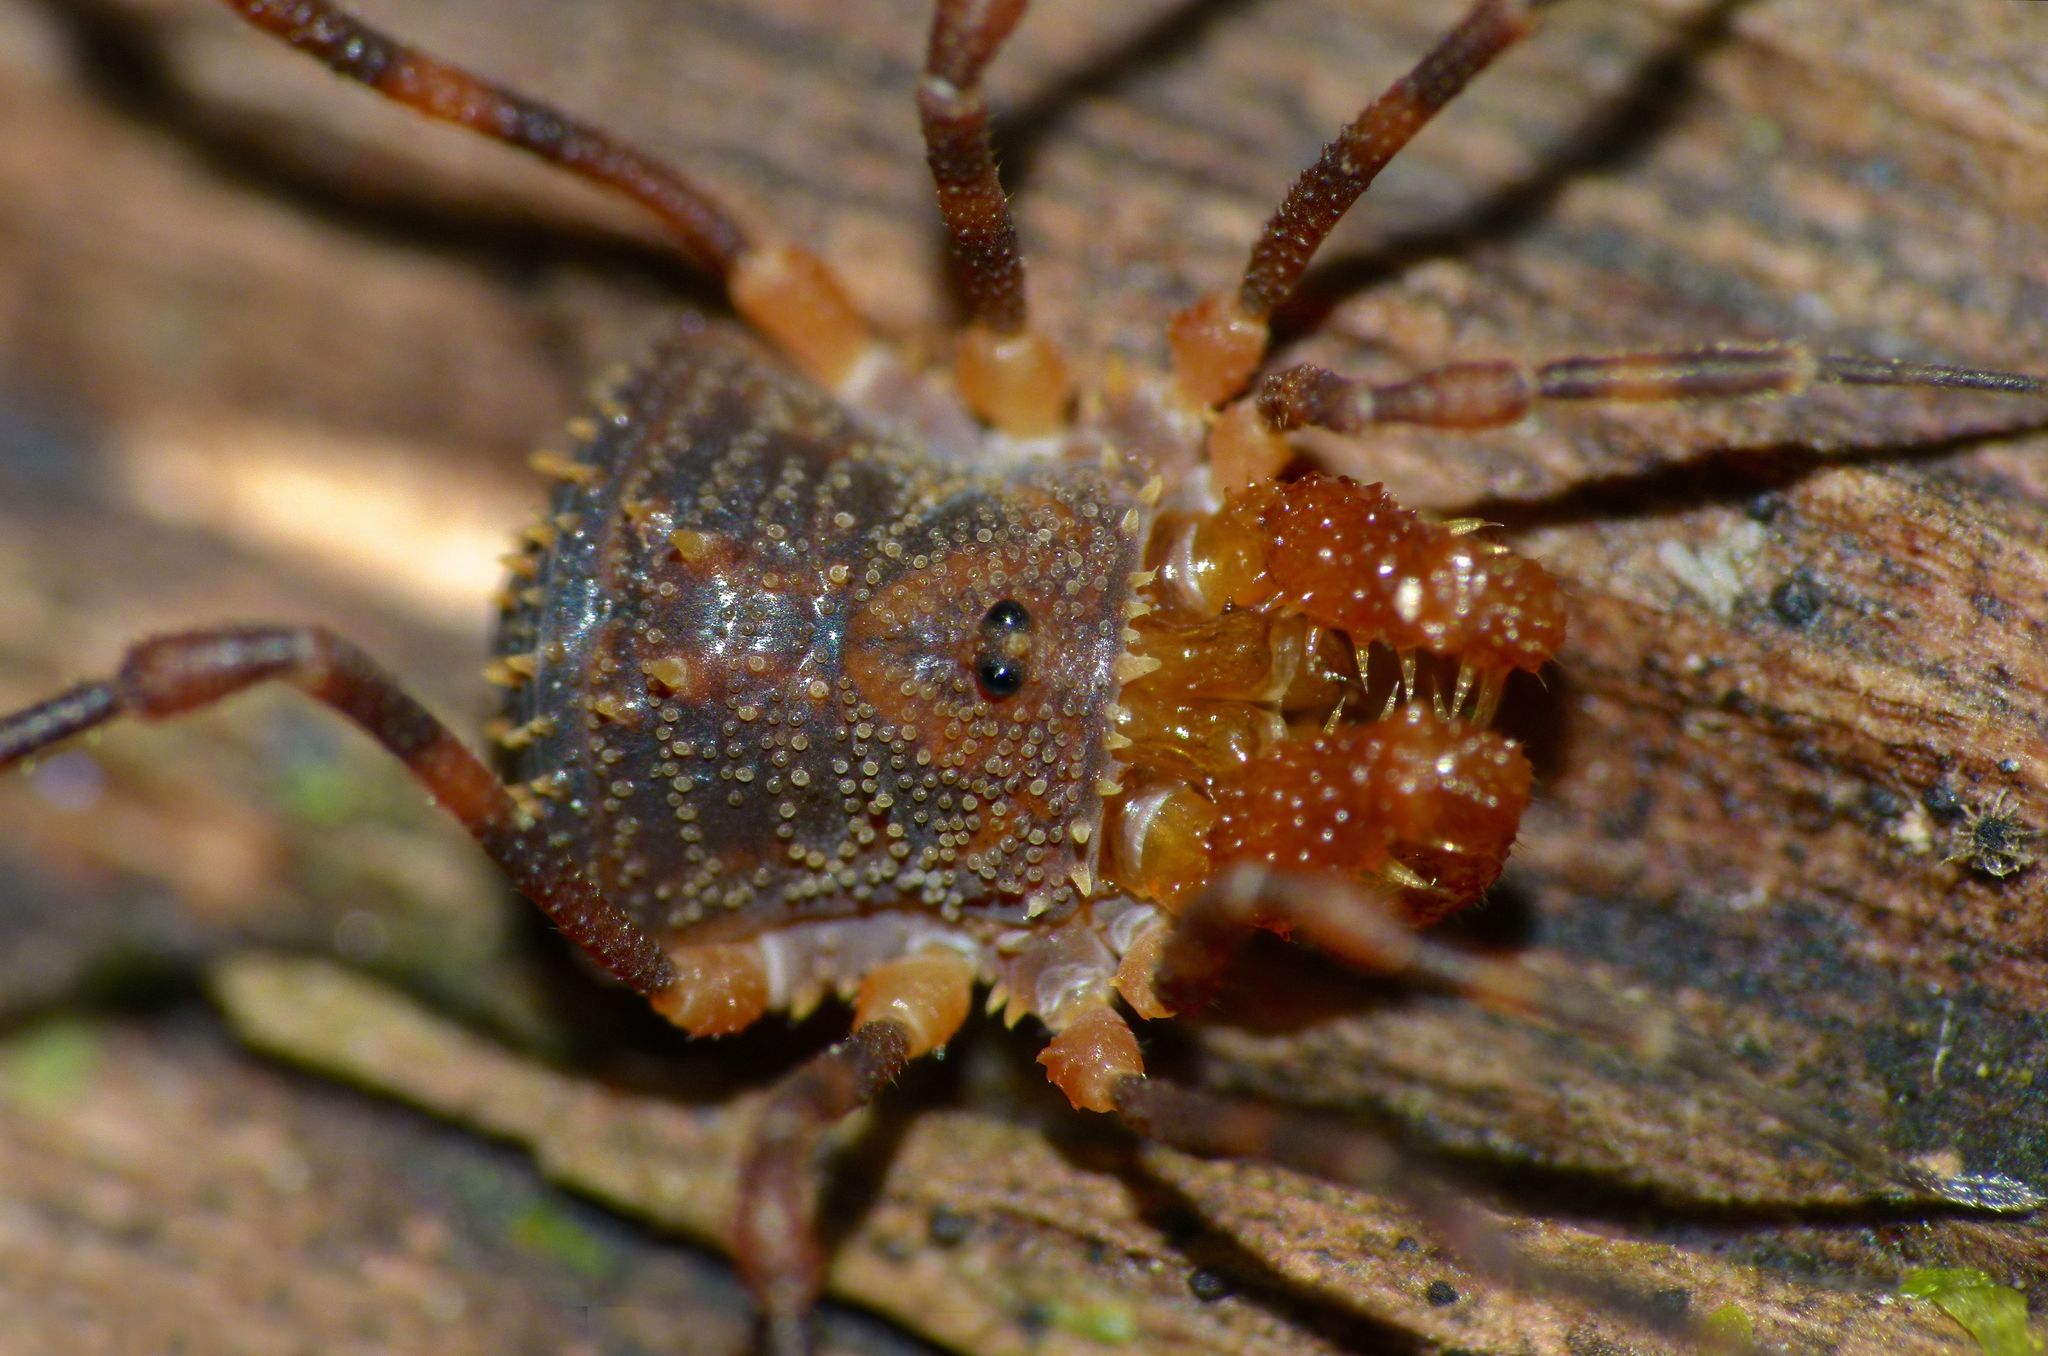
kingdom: Animalia
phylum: Arthropoda
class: Arachnida
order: Opiliones
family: Triaenonychidae
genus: Prasma
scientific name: Prasma sorenseni
